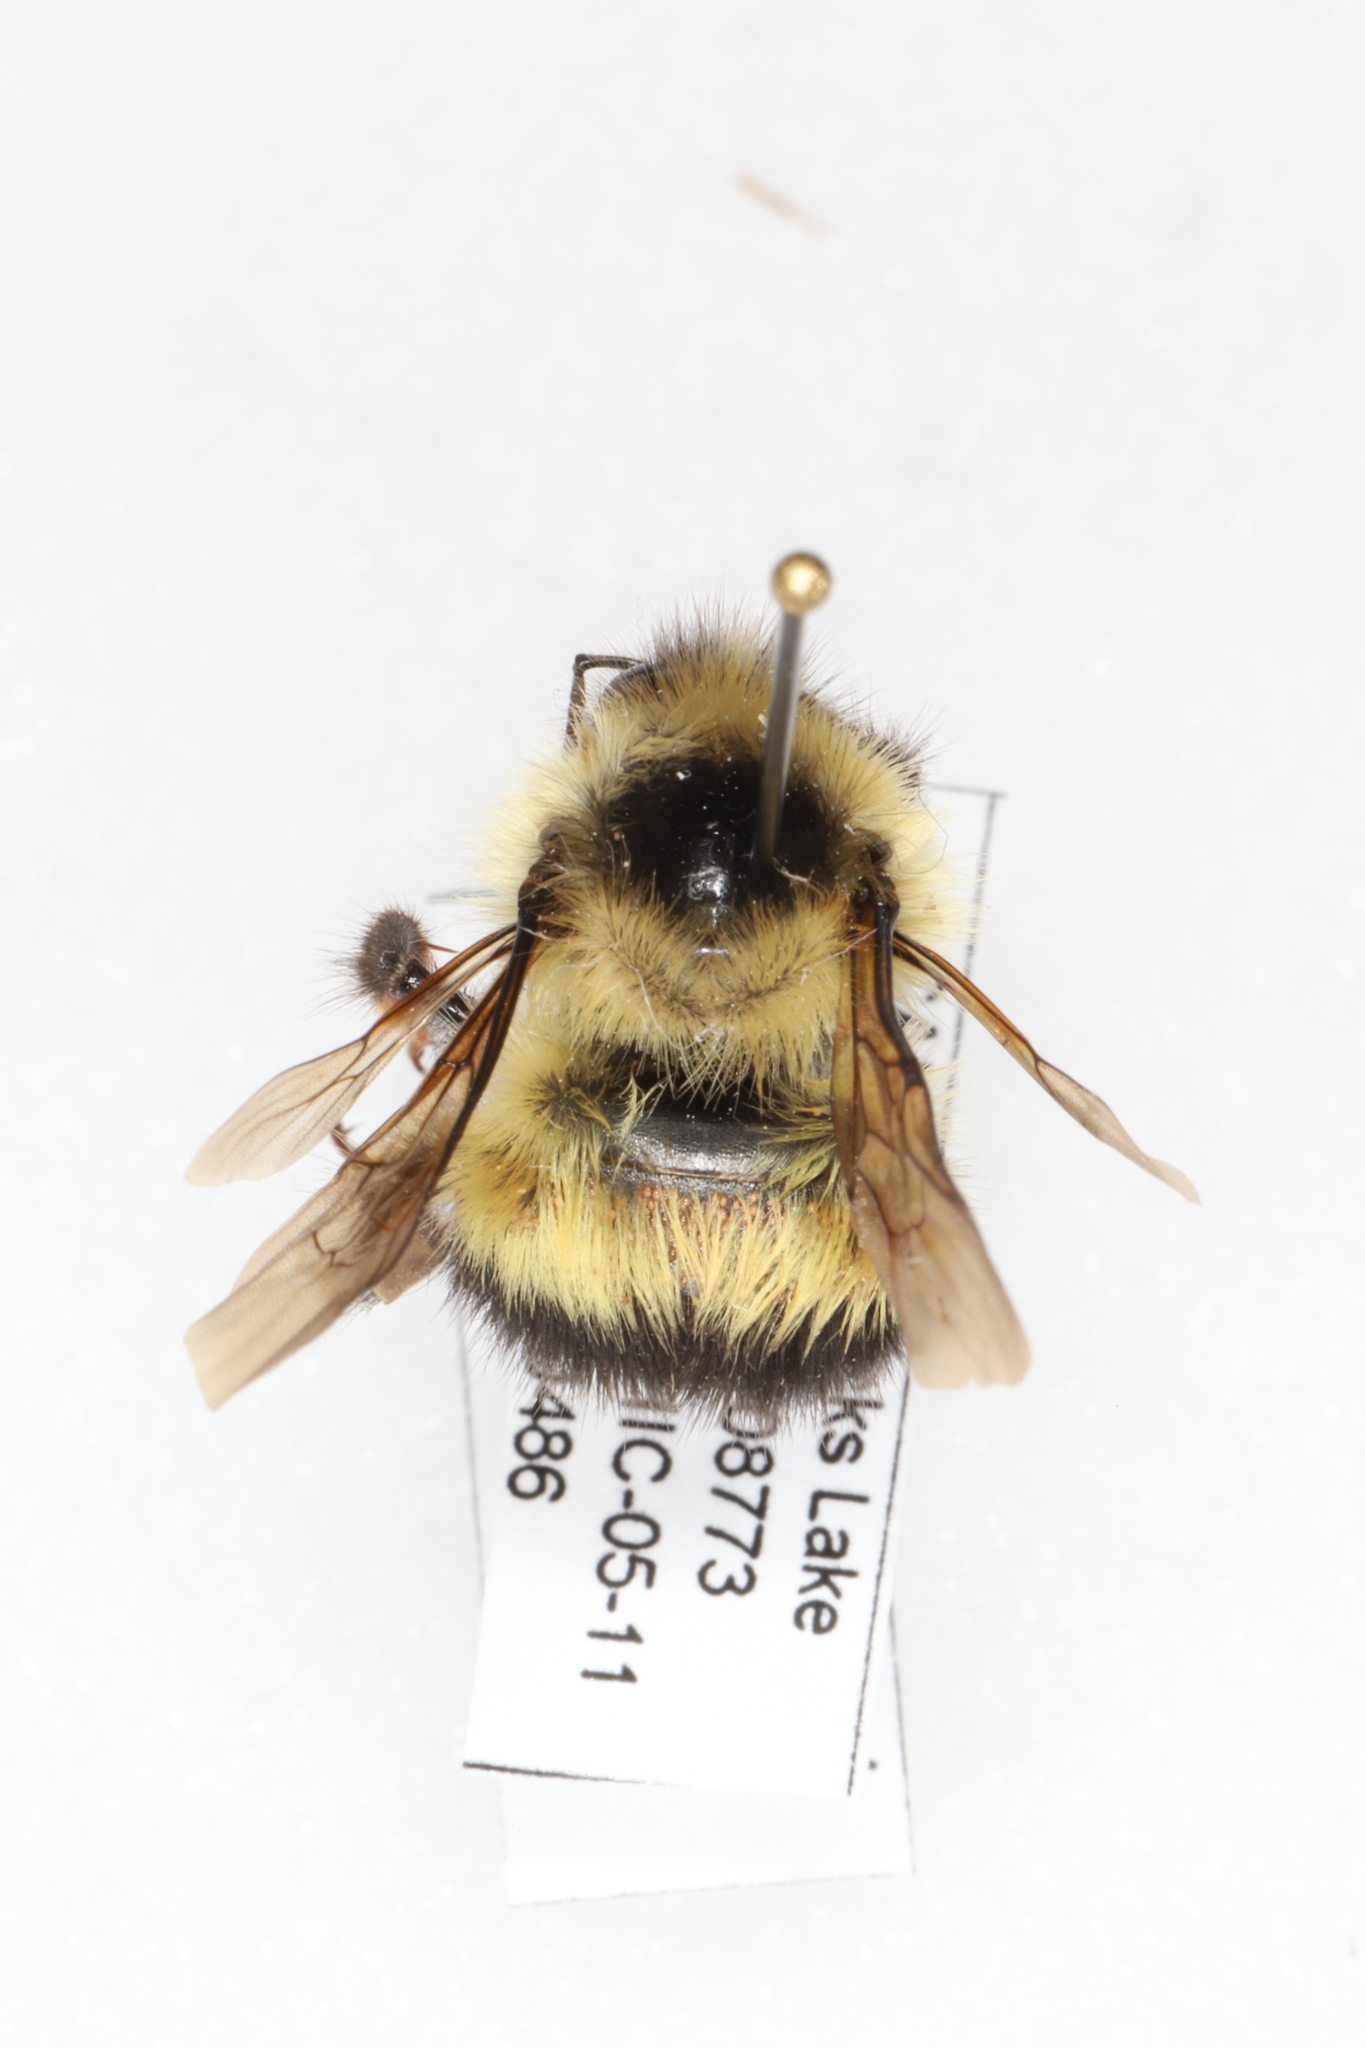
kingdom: Animalia
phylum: Arthropoda
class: Insecta
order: Hymenoptera
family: Apidae
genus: Bombus
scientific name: Bombus sandersoni
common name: Sanderson bumble bee
